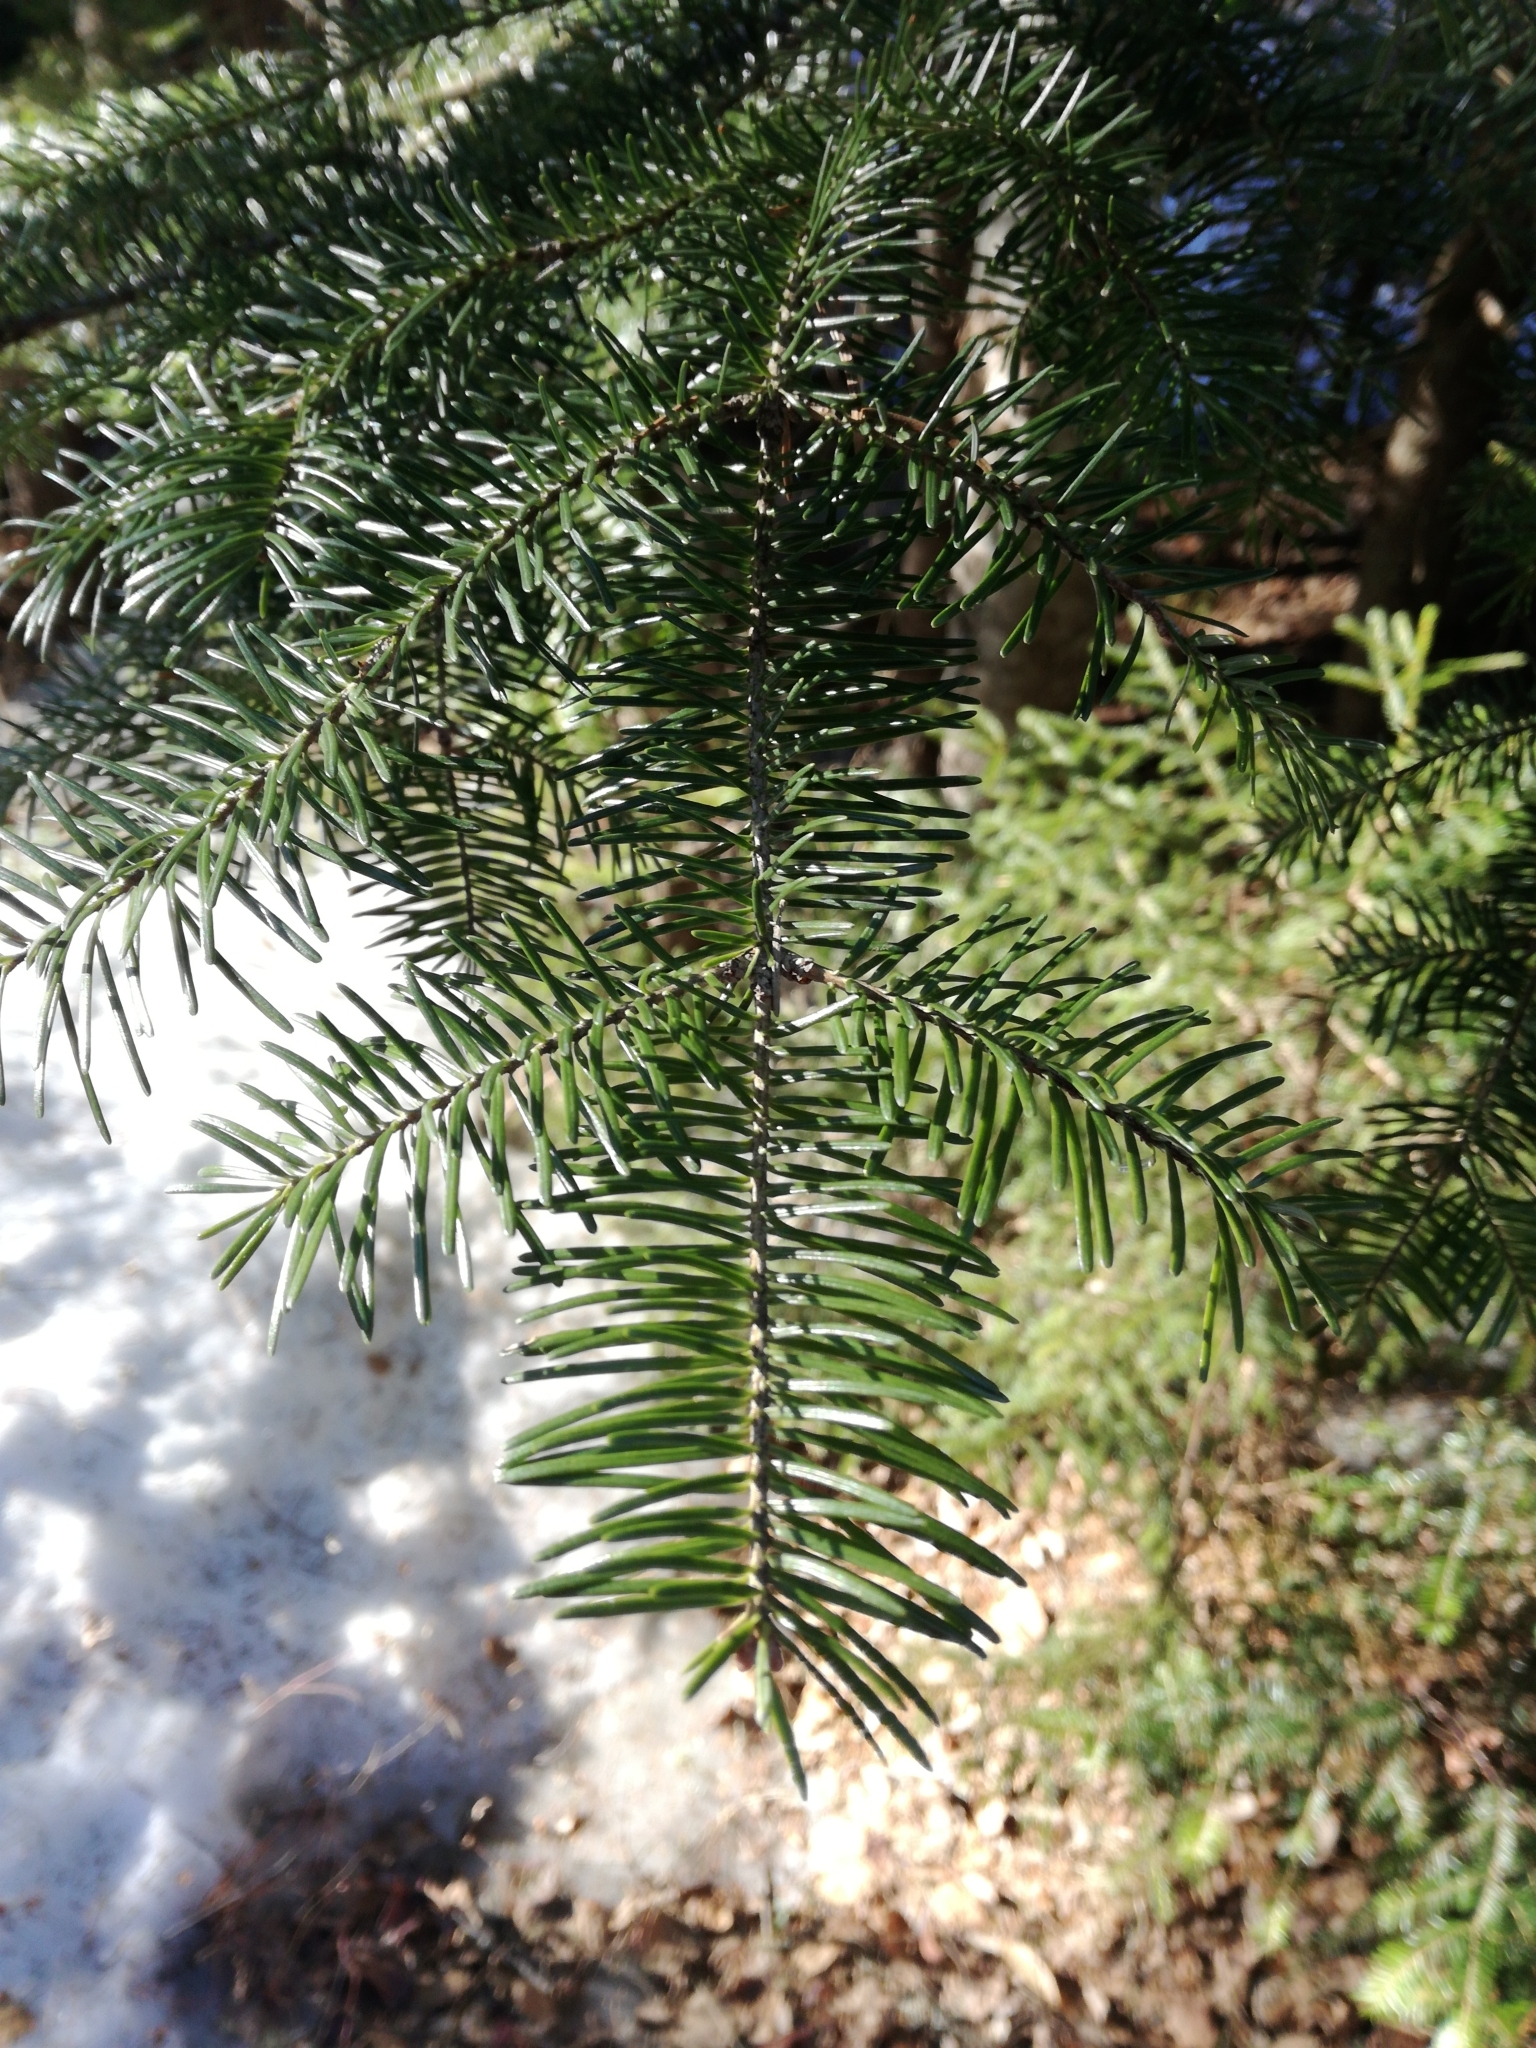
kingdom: Plantae
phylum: Tracheophyta
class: Pinopsida
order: Pinales
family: Pinaceae
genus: Abies
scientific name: Abies balsamea
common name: Balsam fir
